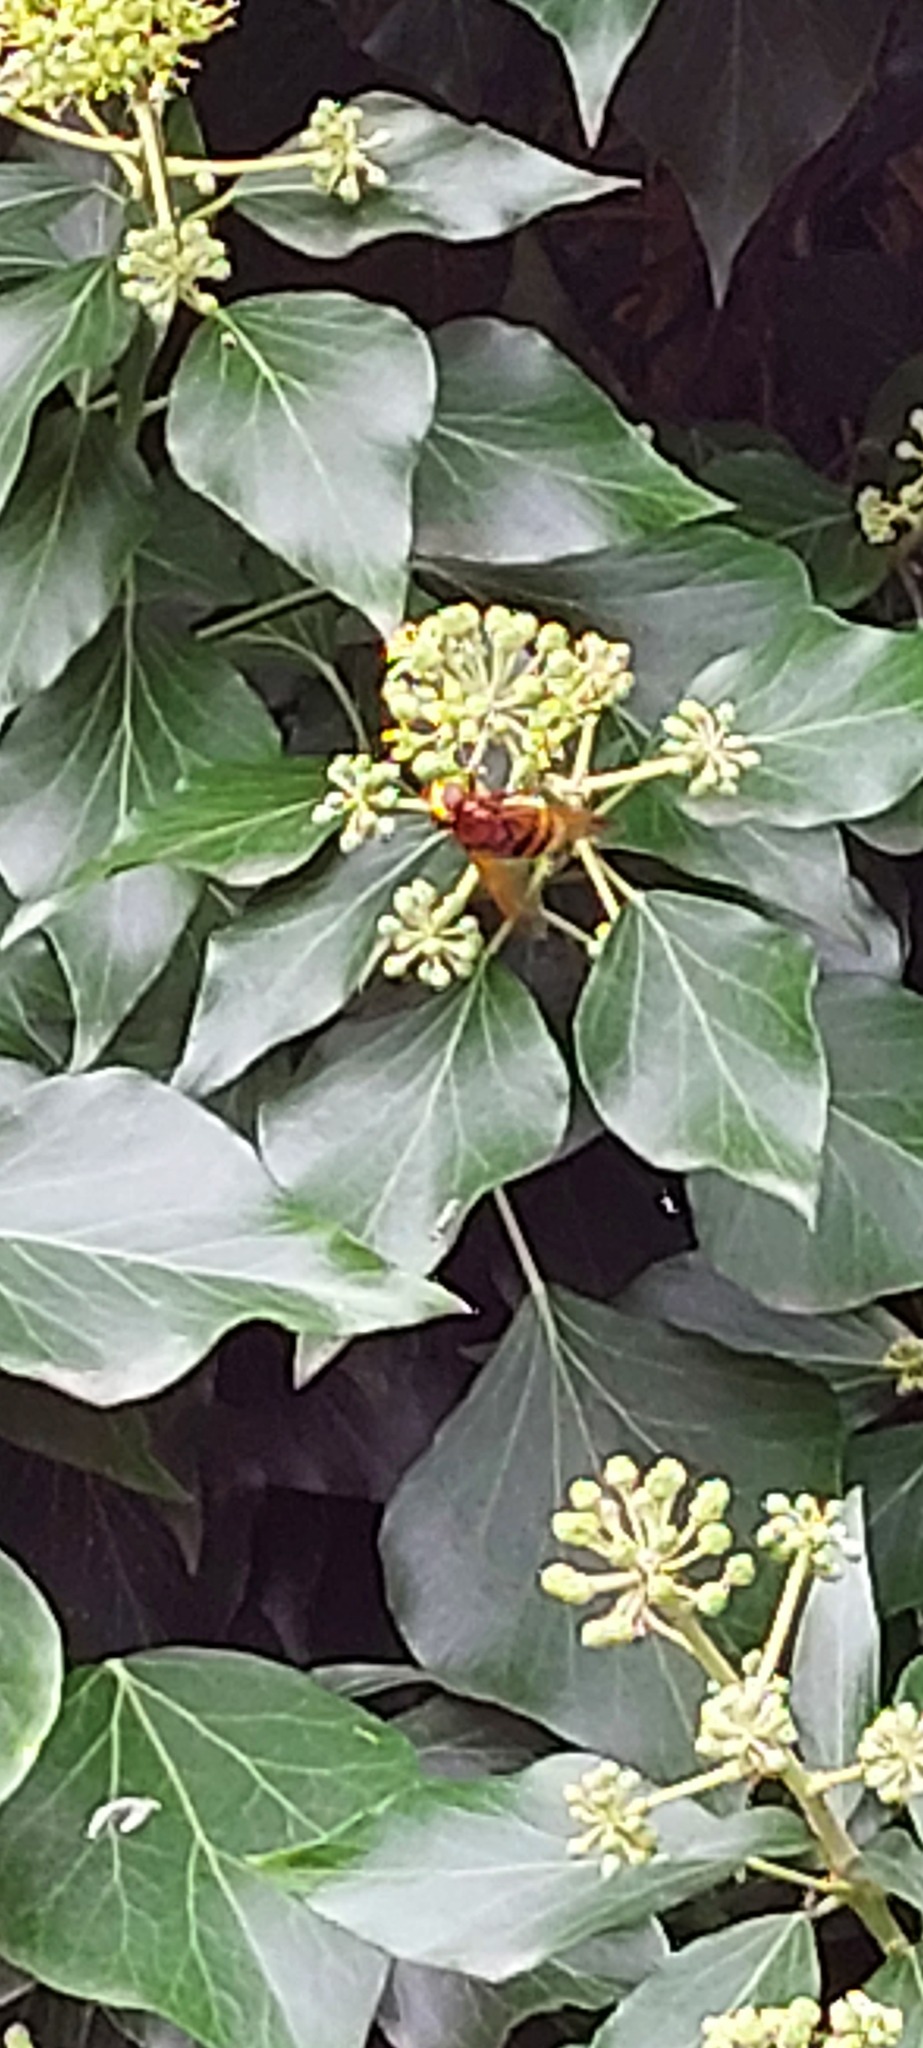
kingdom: Animalia
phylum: Arthropoda
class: Insecta
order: Diptera
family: Syrphidae
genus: Volucella
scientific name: Volucella zonaria
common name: Hornet hoverfly
